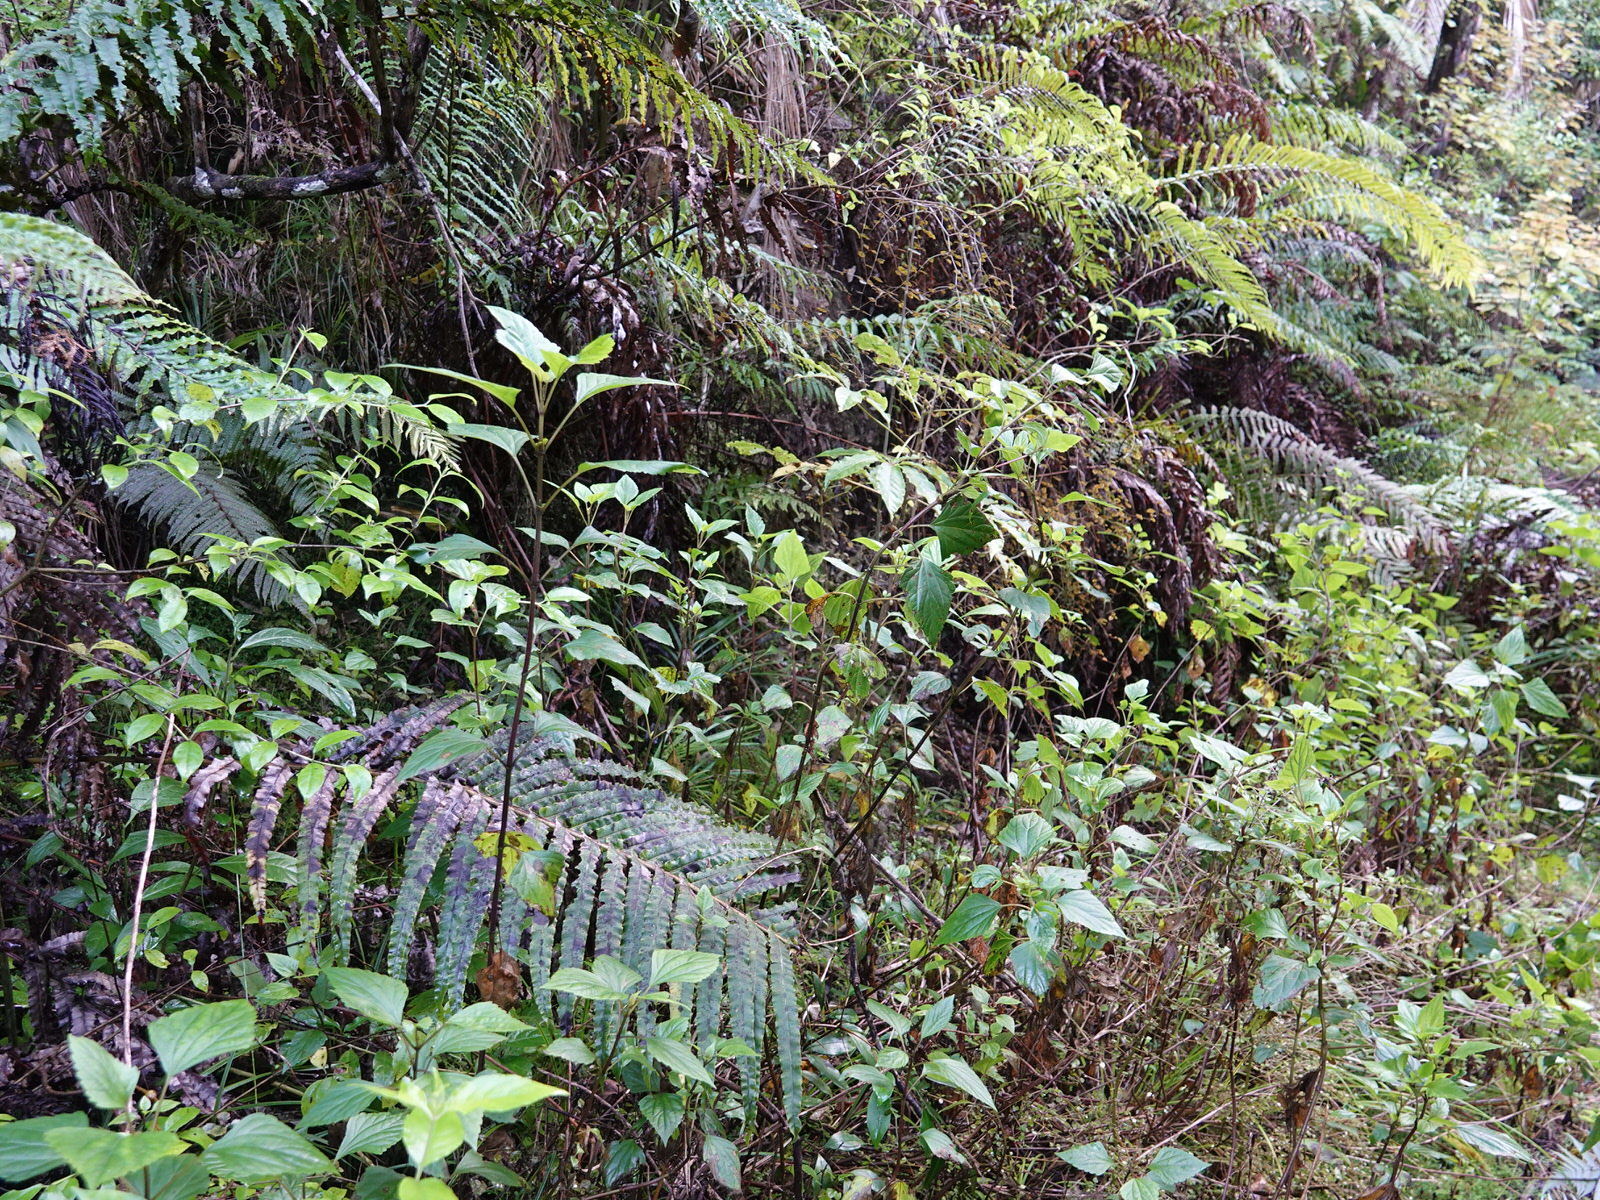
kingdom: Plantae
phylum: Tracheophyta
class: Magnoliopsida
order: Asterales
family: Asteraceae
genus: Ageratina
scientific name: Ageratina adenophora
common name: Sticky snakeroot
